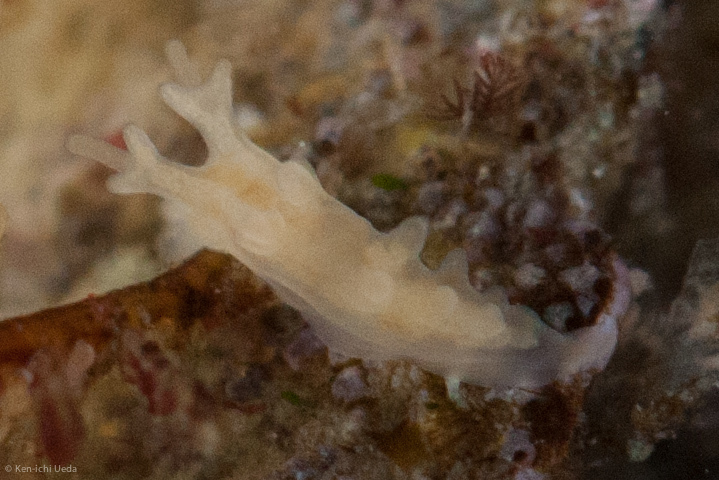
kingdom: Animalia
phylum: Mollusca
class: Gastropoda
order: Nudibranchia
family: Dendronotidae
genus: Dendronotus
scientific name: Dendronotus subramosus
